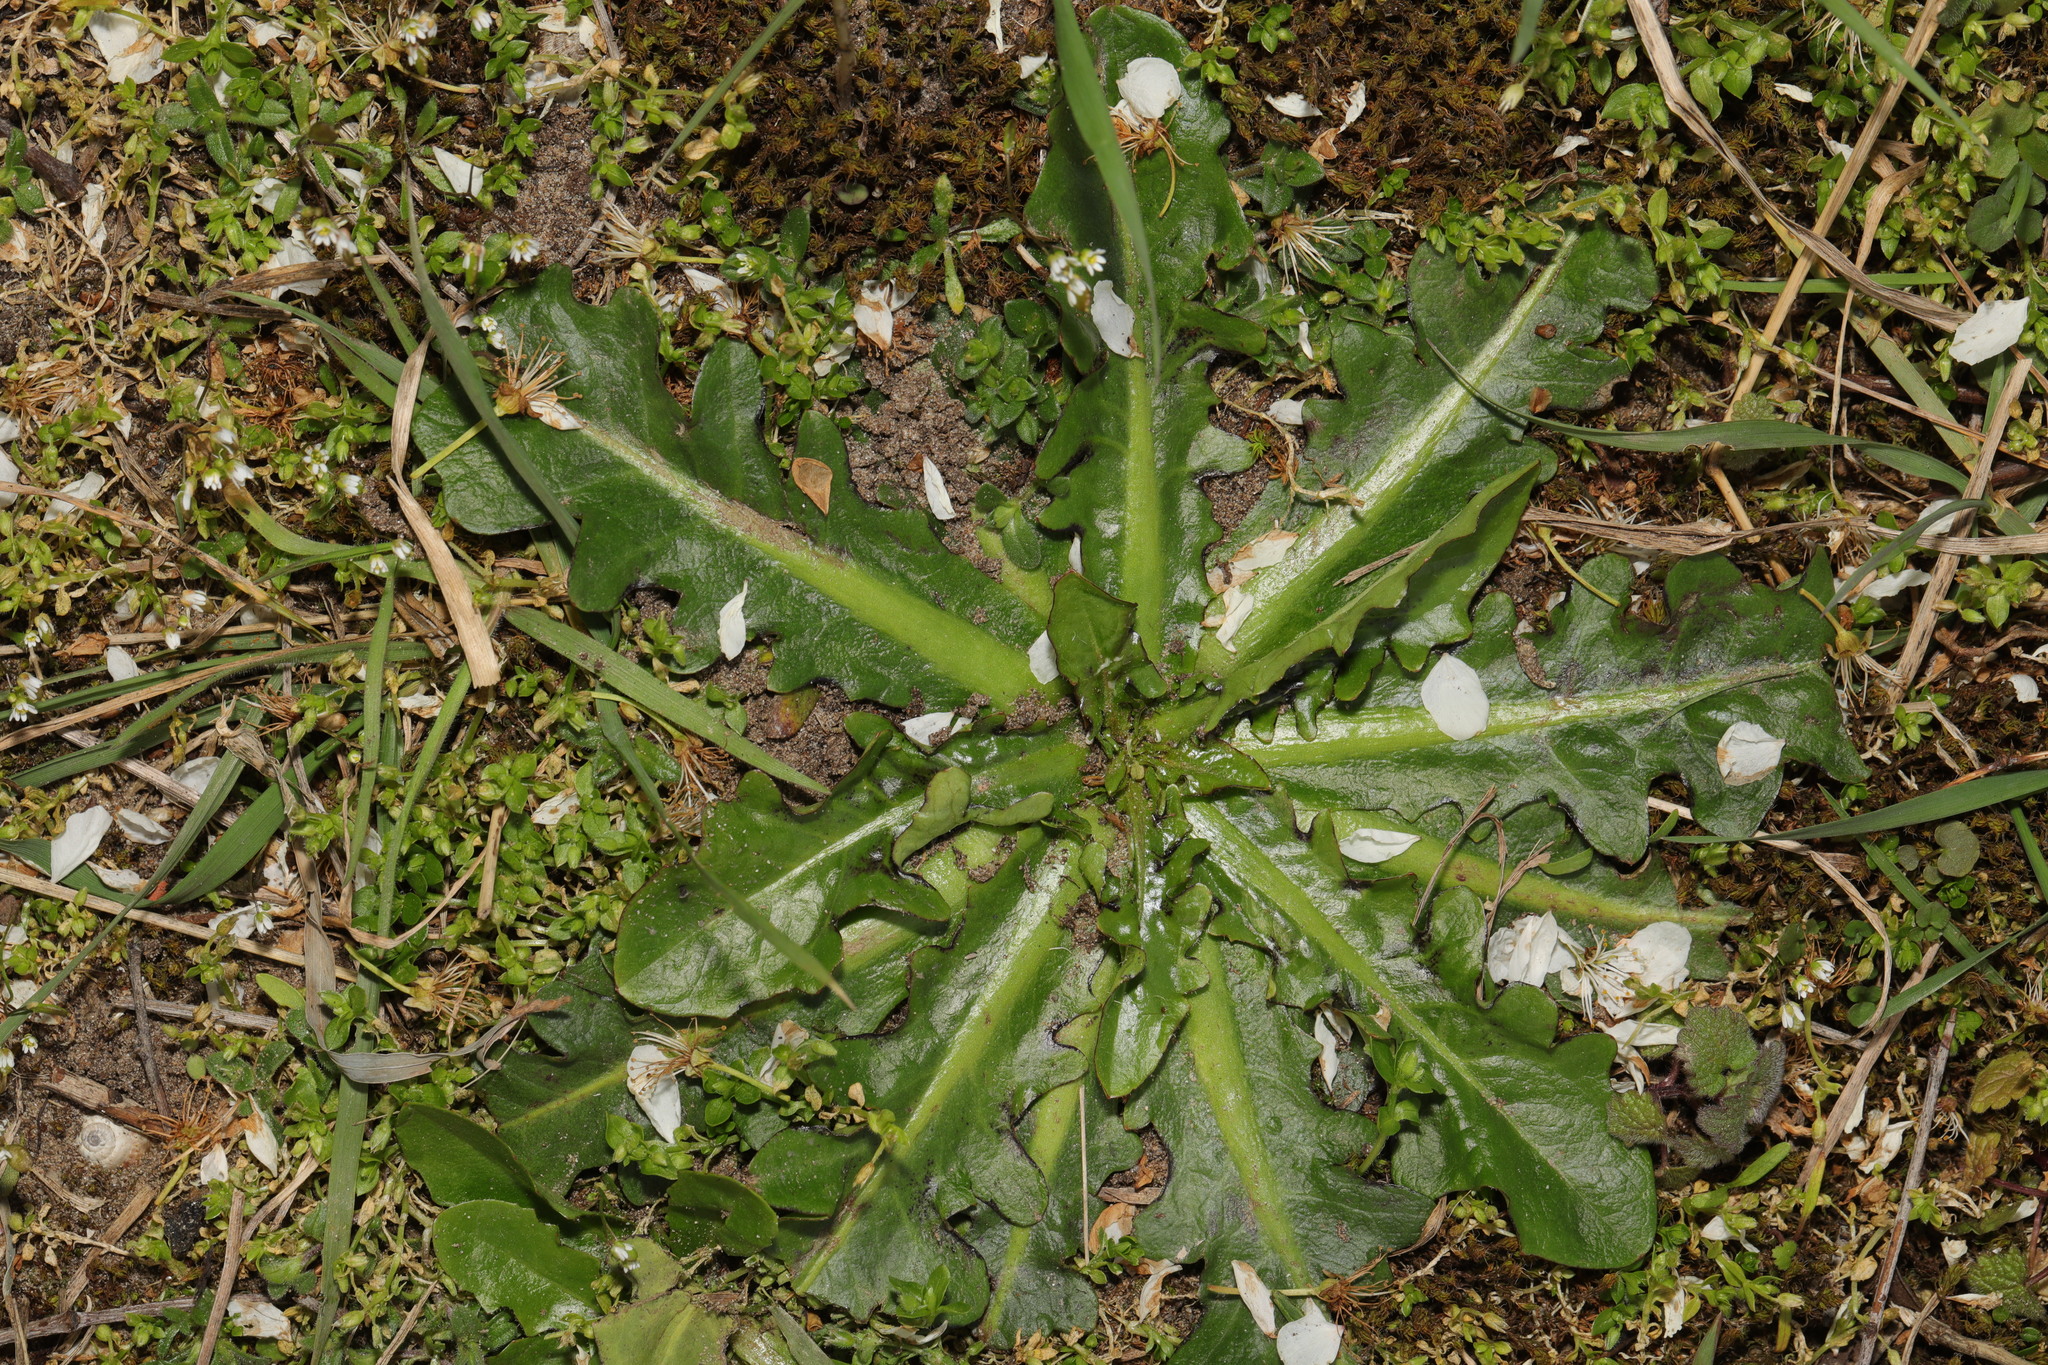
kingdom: Plantae
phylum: Tracheophyta
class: Magnoliopsida
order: Asterales
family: Asteraceae
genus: Hypochaeris
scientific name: Hypochaeris radicata
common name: Flatweed
